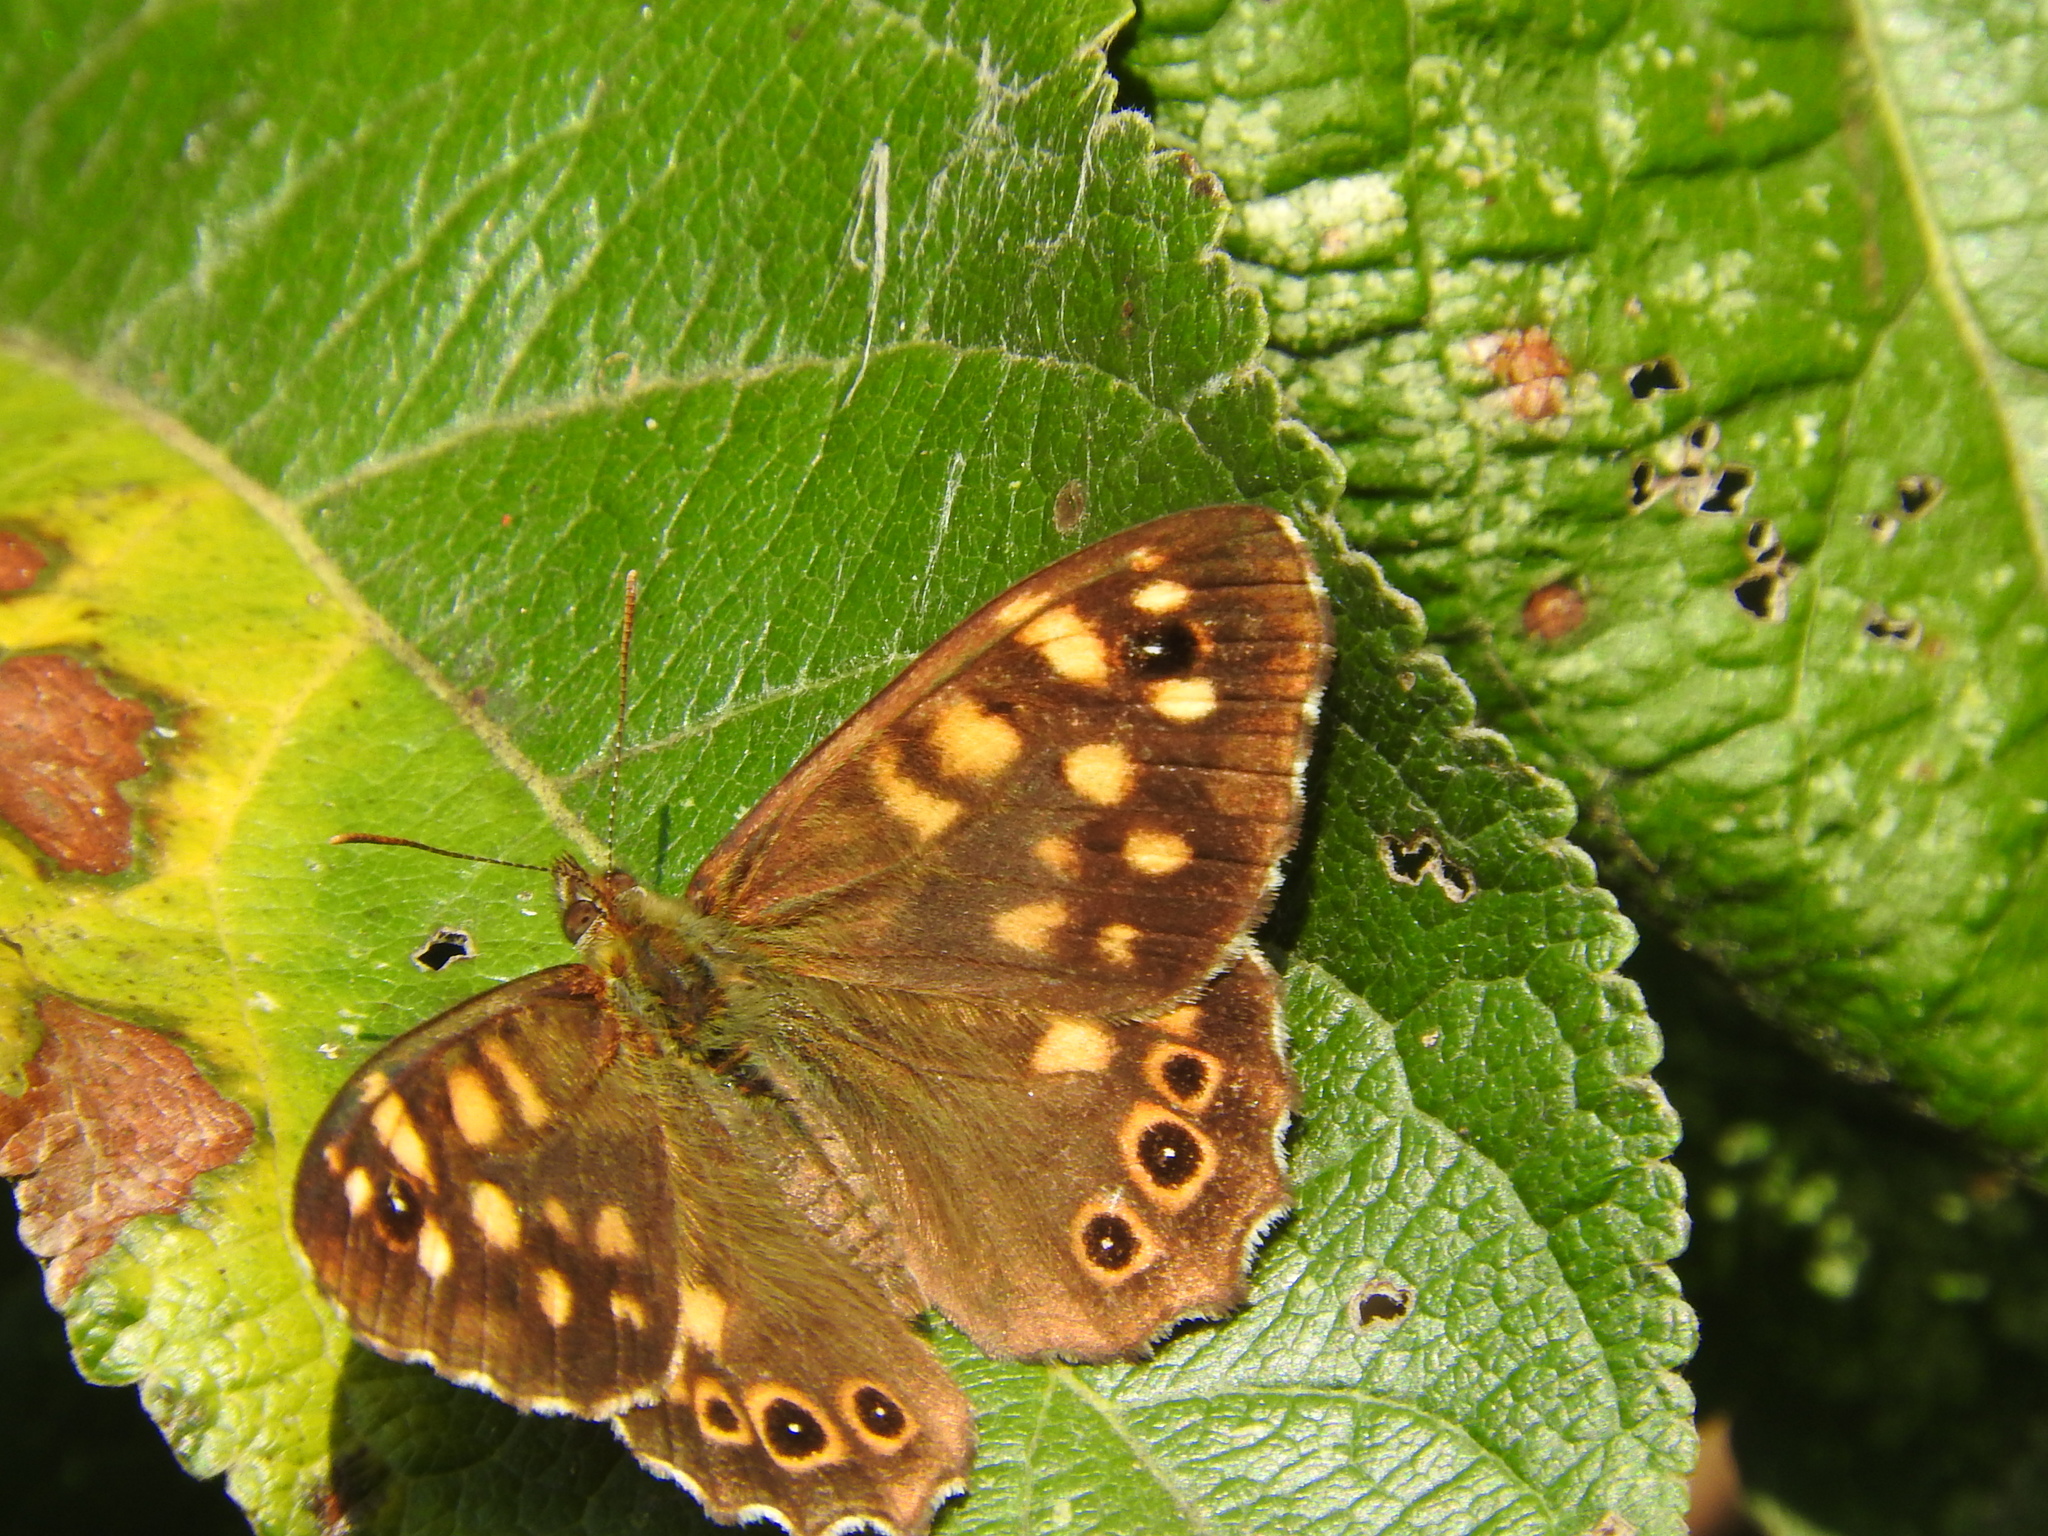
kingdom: Animalia
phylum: Arthropoda
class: Insecta
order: Lepidoptera
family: Nymphalidae
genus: Pararge
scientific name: Pararge aegeria
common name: Speckled wood
